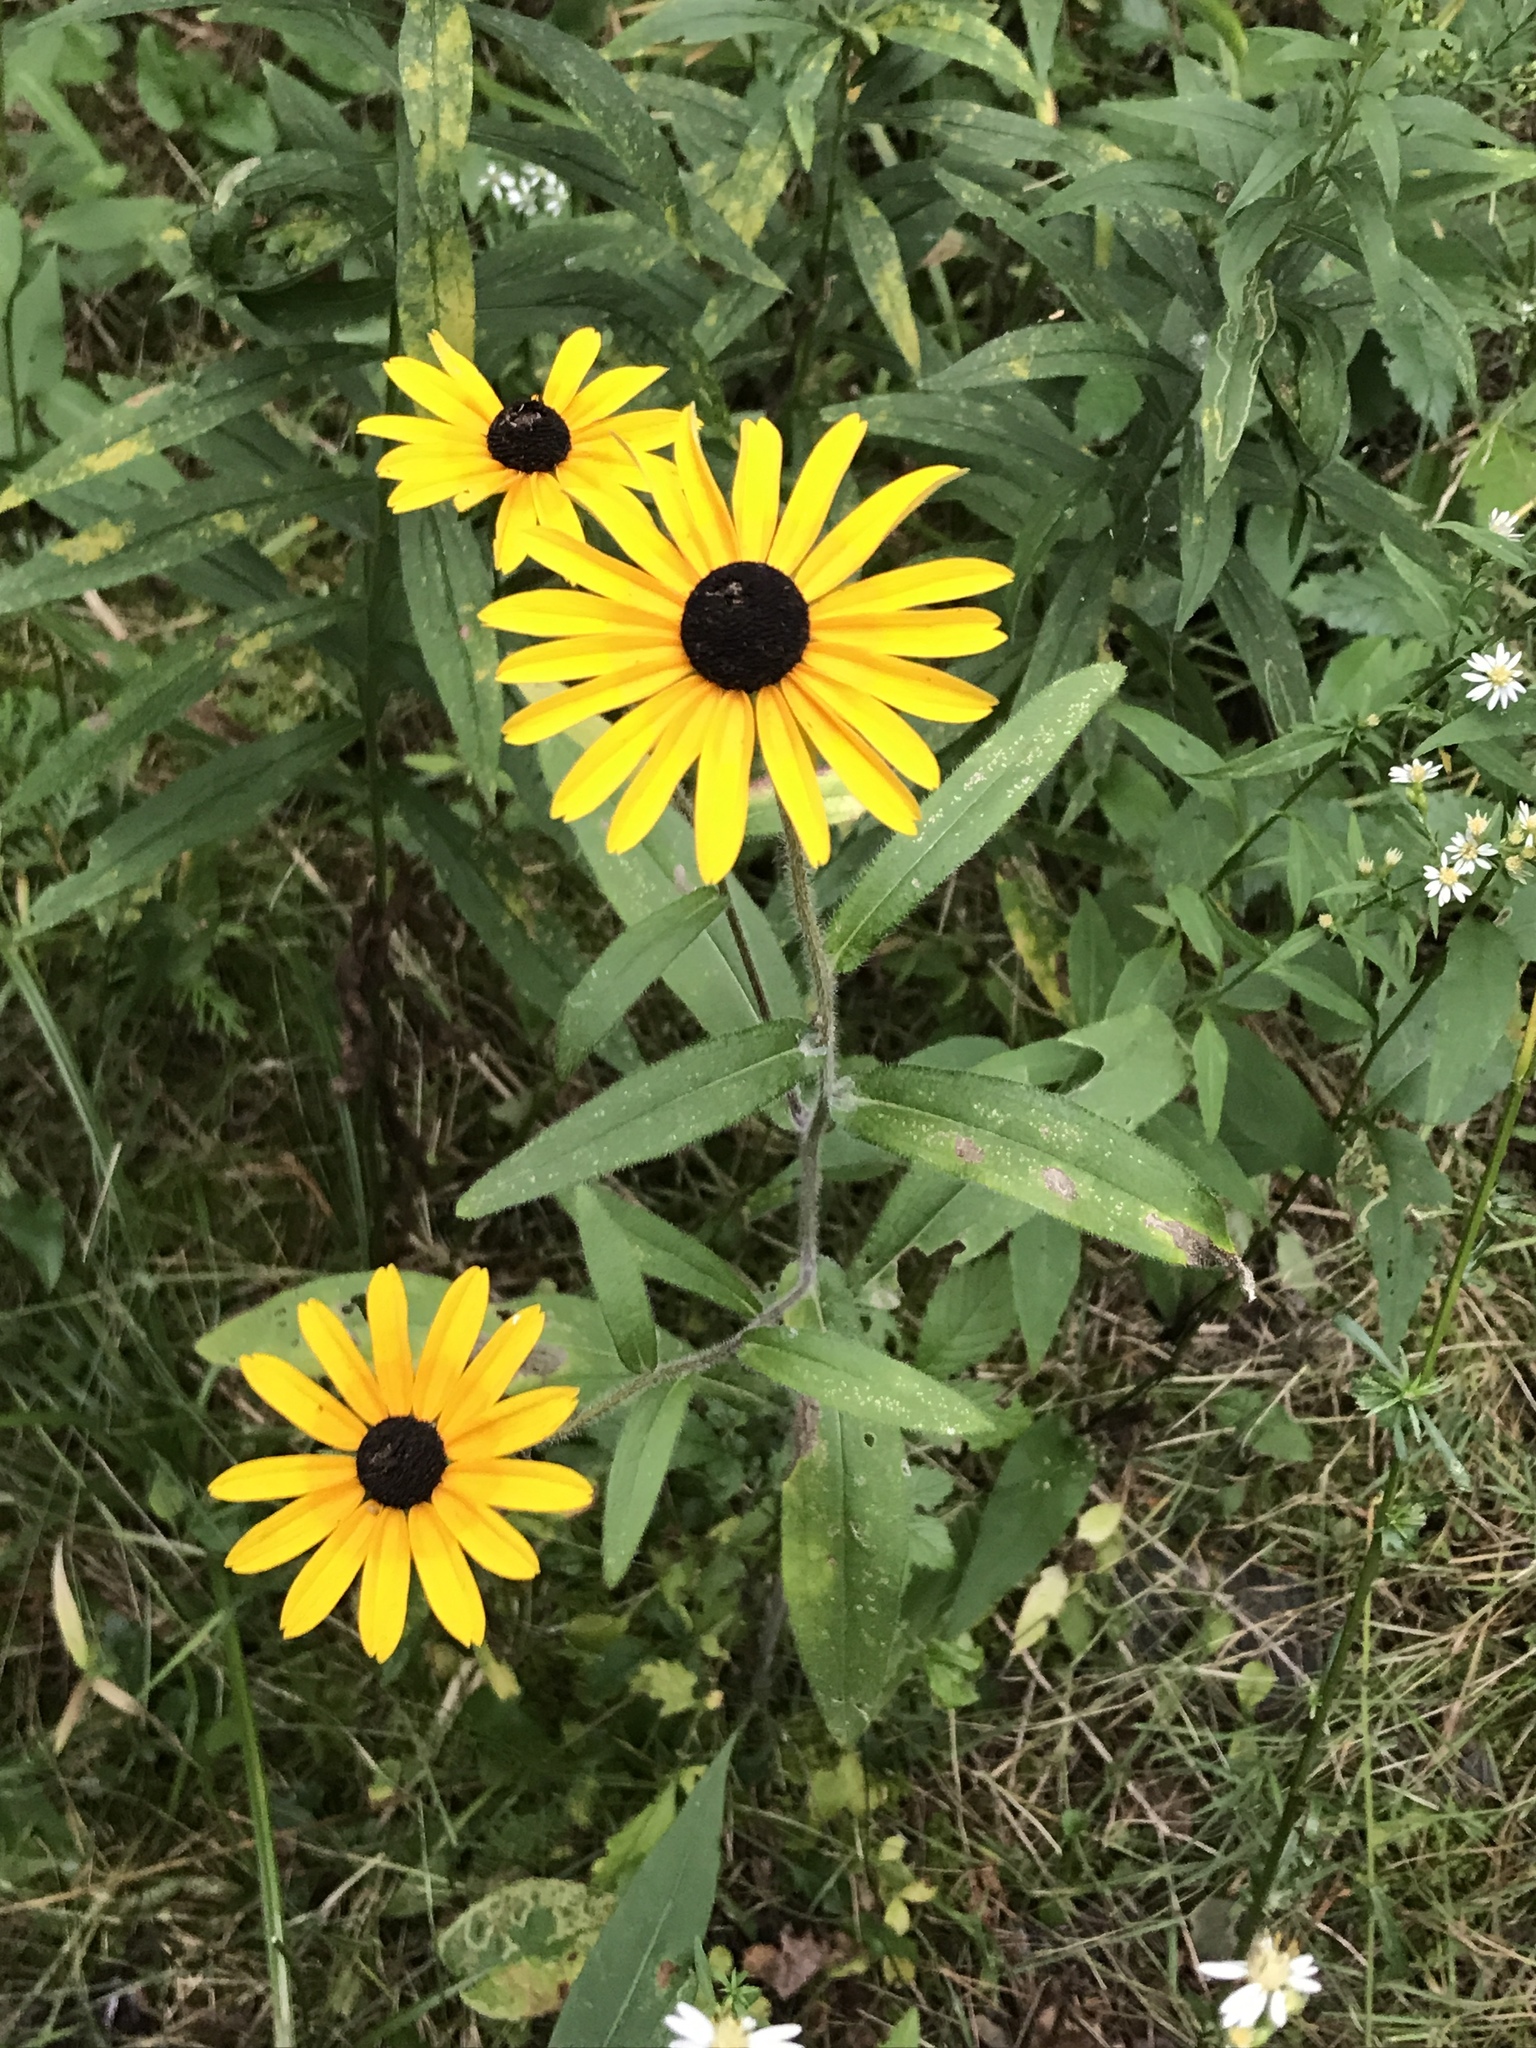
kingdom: Plantae
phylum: Tracheophyta
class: Magnoliopsida
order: Asterales
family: Asteraceae
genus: Rudbeckia
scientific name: Rudbeckia hirta
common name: Black-eyed-susan
